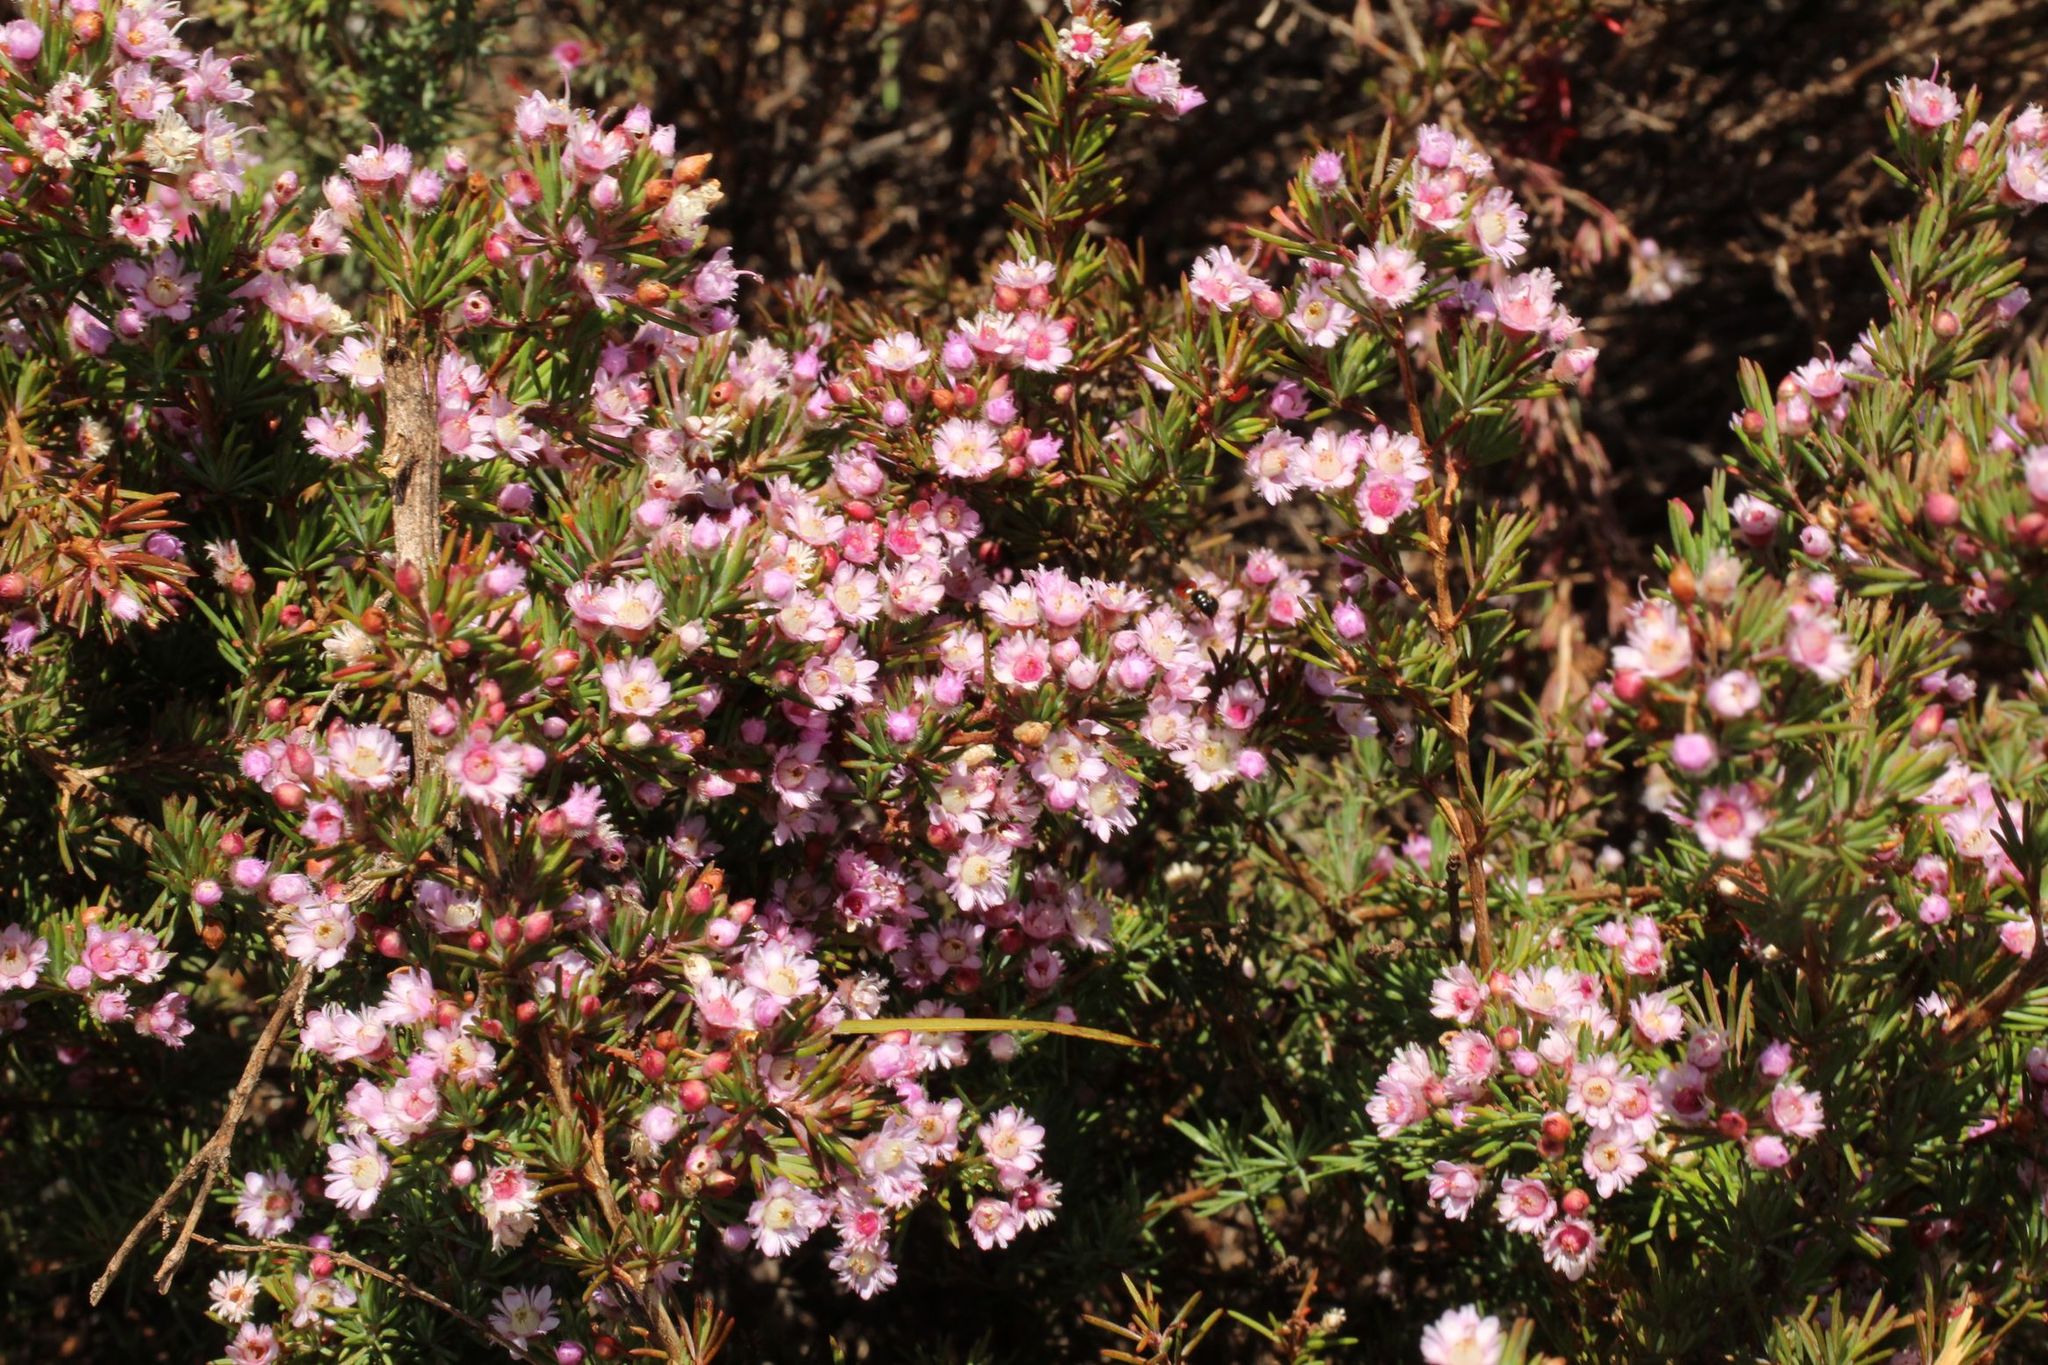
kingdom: Plantae
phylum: Tracheophyta
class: Magnoliopsida
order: Myrtales
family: Myrtaceae
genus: Verticordia
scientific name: Verticordia plumosa
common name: Plume feather-flower
